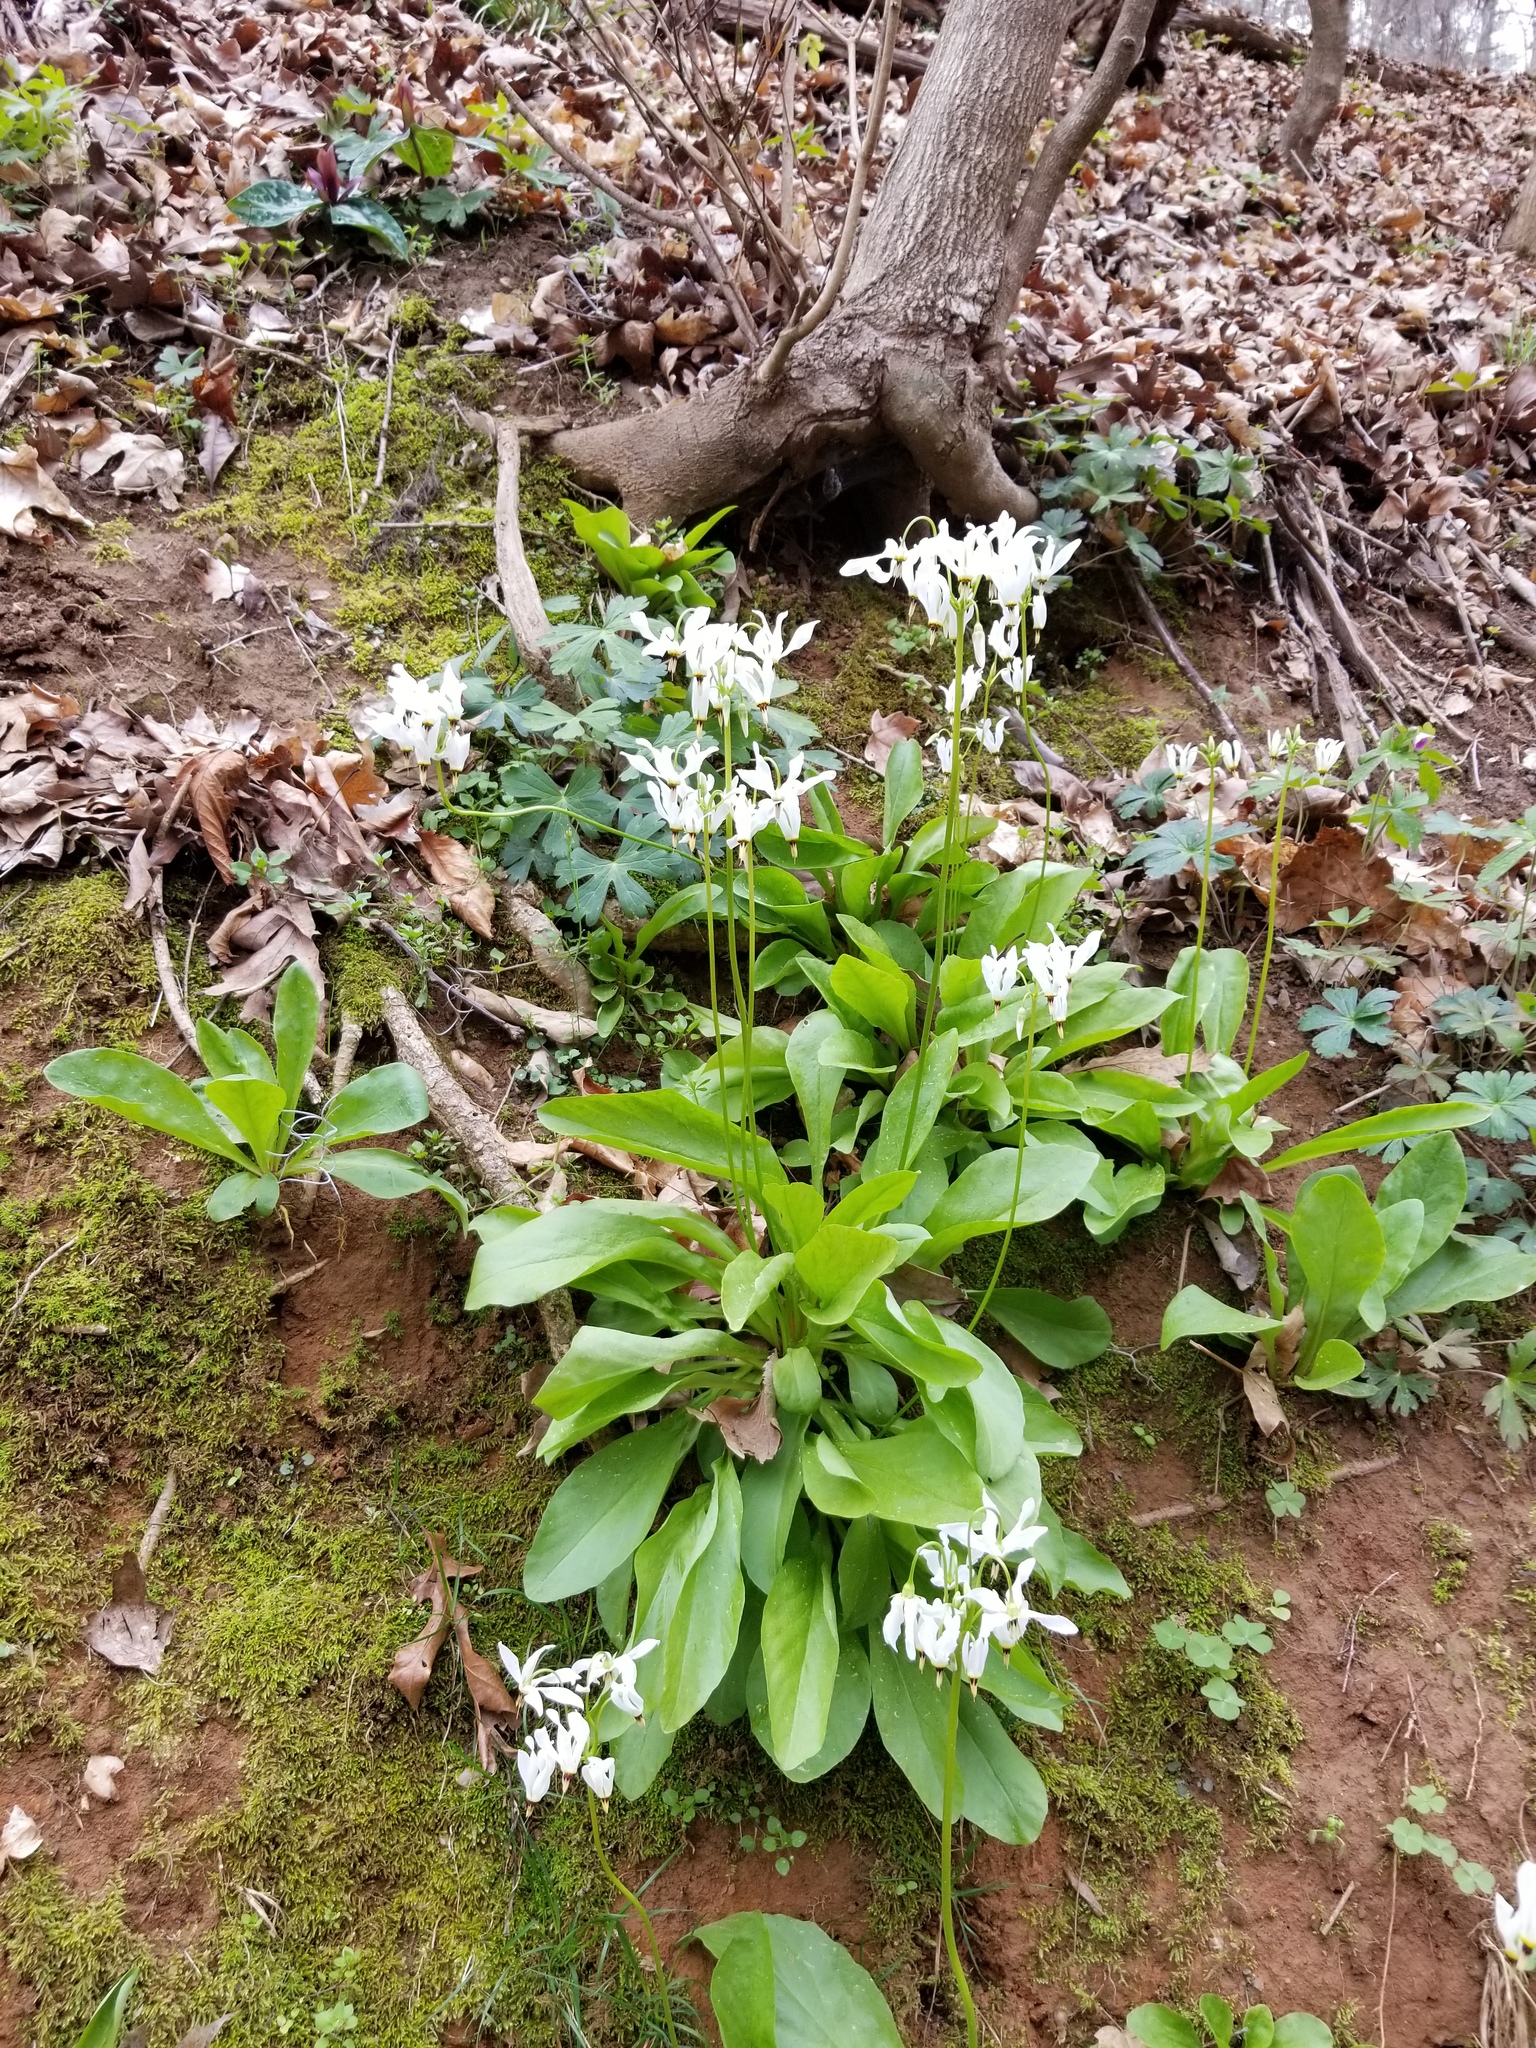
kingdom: Plantae
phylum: Tracheophyta
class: Magnoliopsida
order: Ericales
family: Primulaceae
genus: Dodecatheon
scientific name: Dodecatheon meadia
